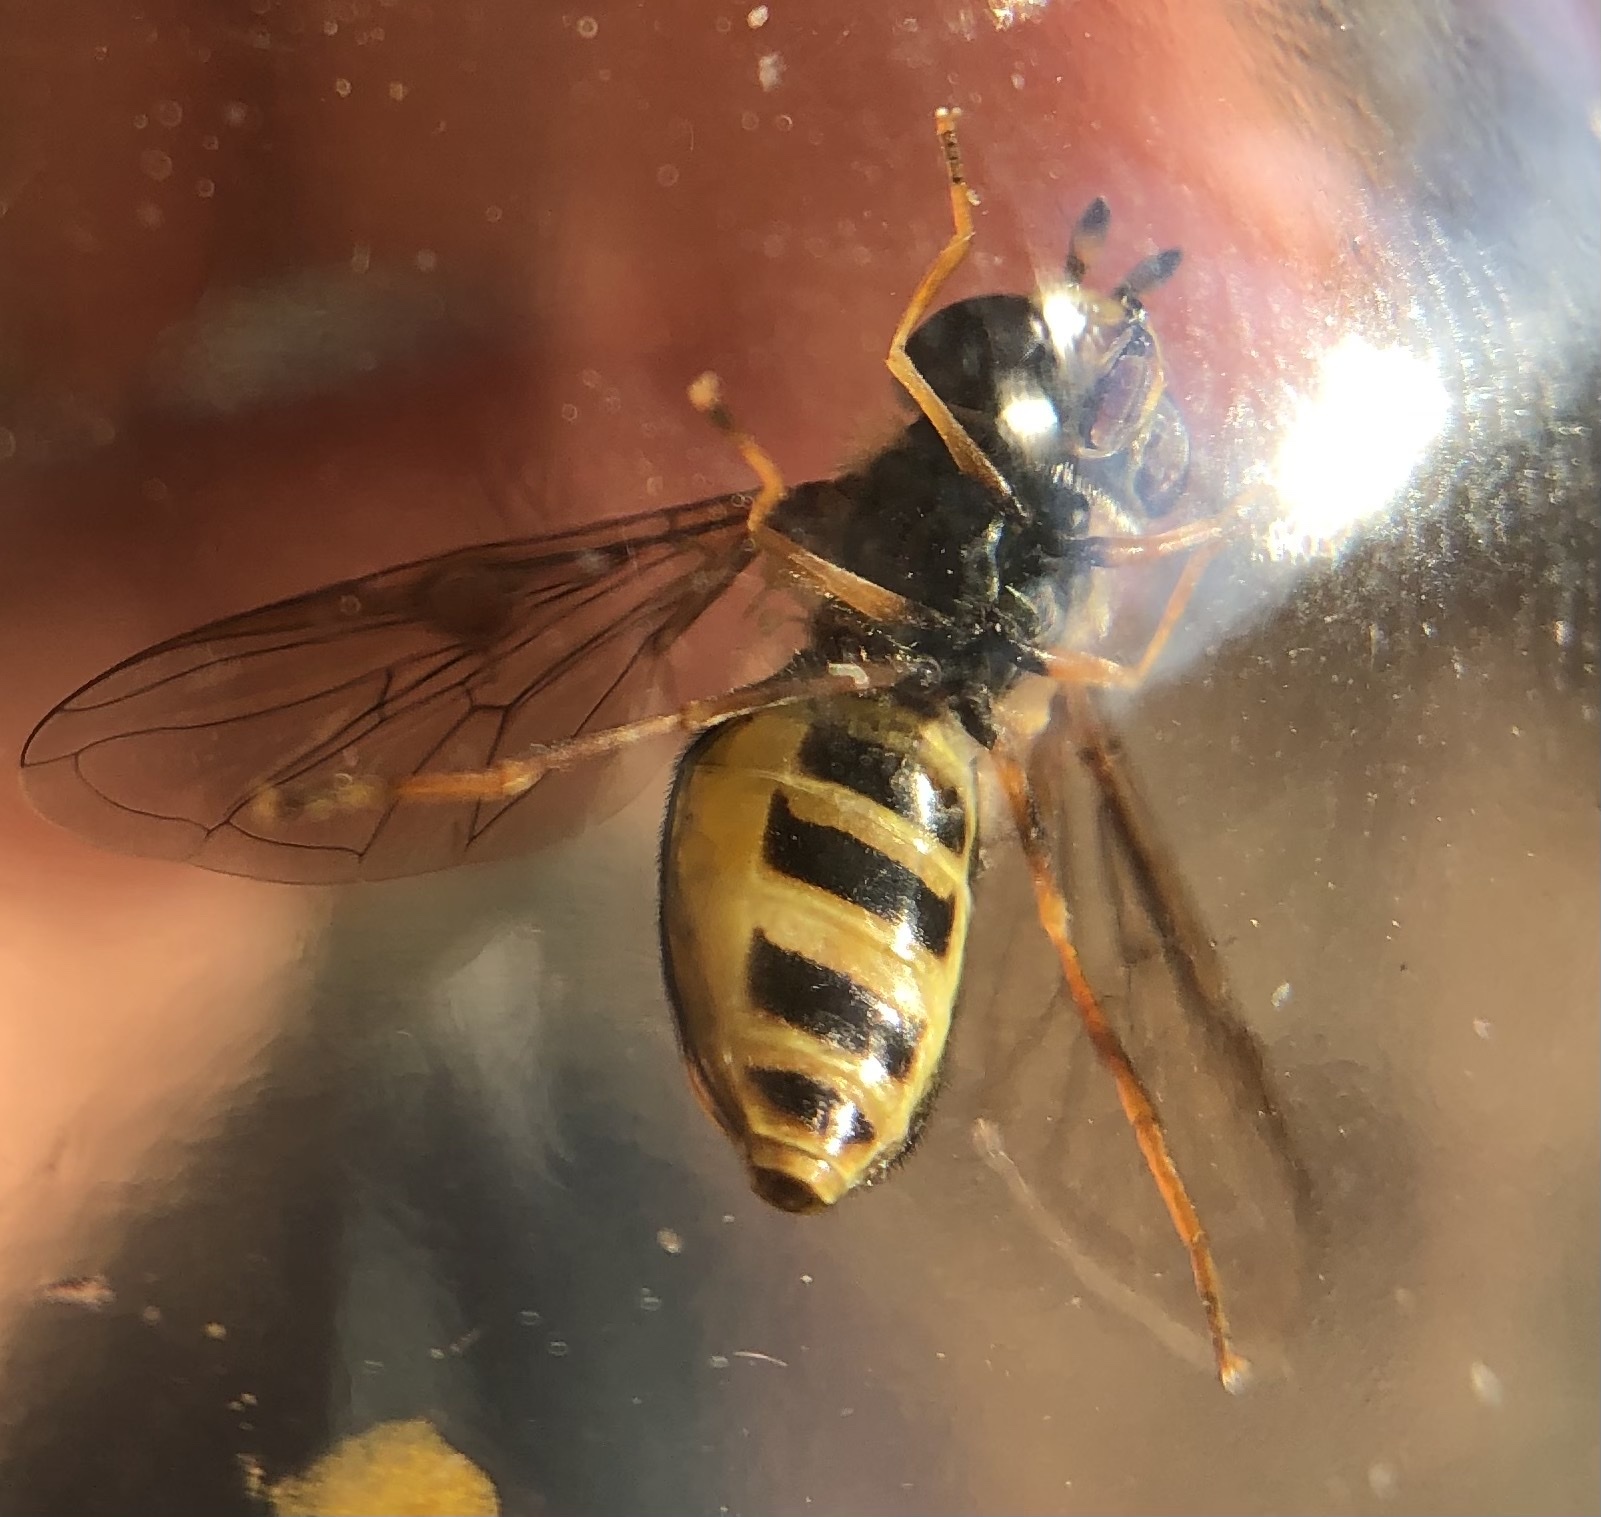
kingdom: Animalia
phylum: Arthropoda
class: Insecta
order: Diptera
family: Syrphidae
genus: Eupeodes
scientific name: Eupeodes
